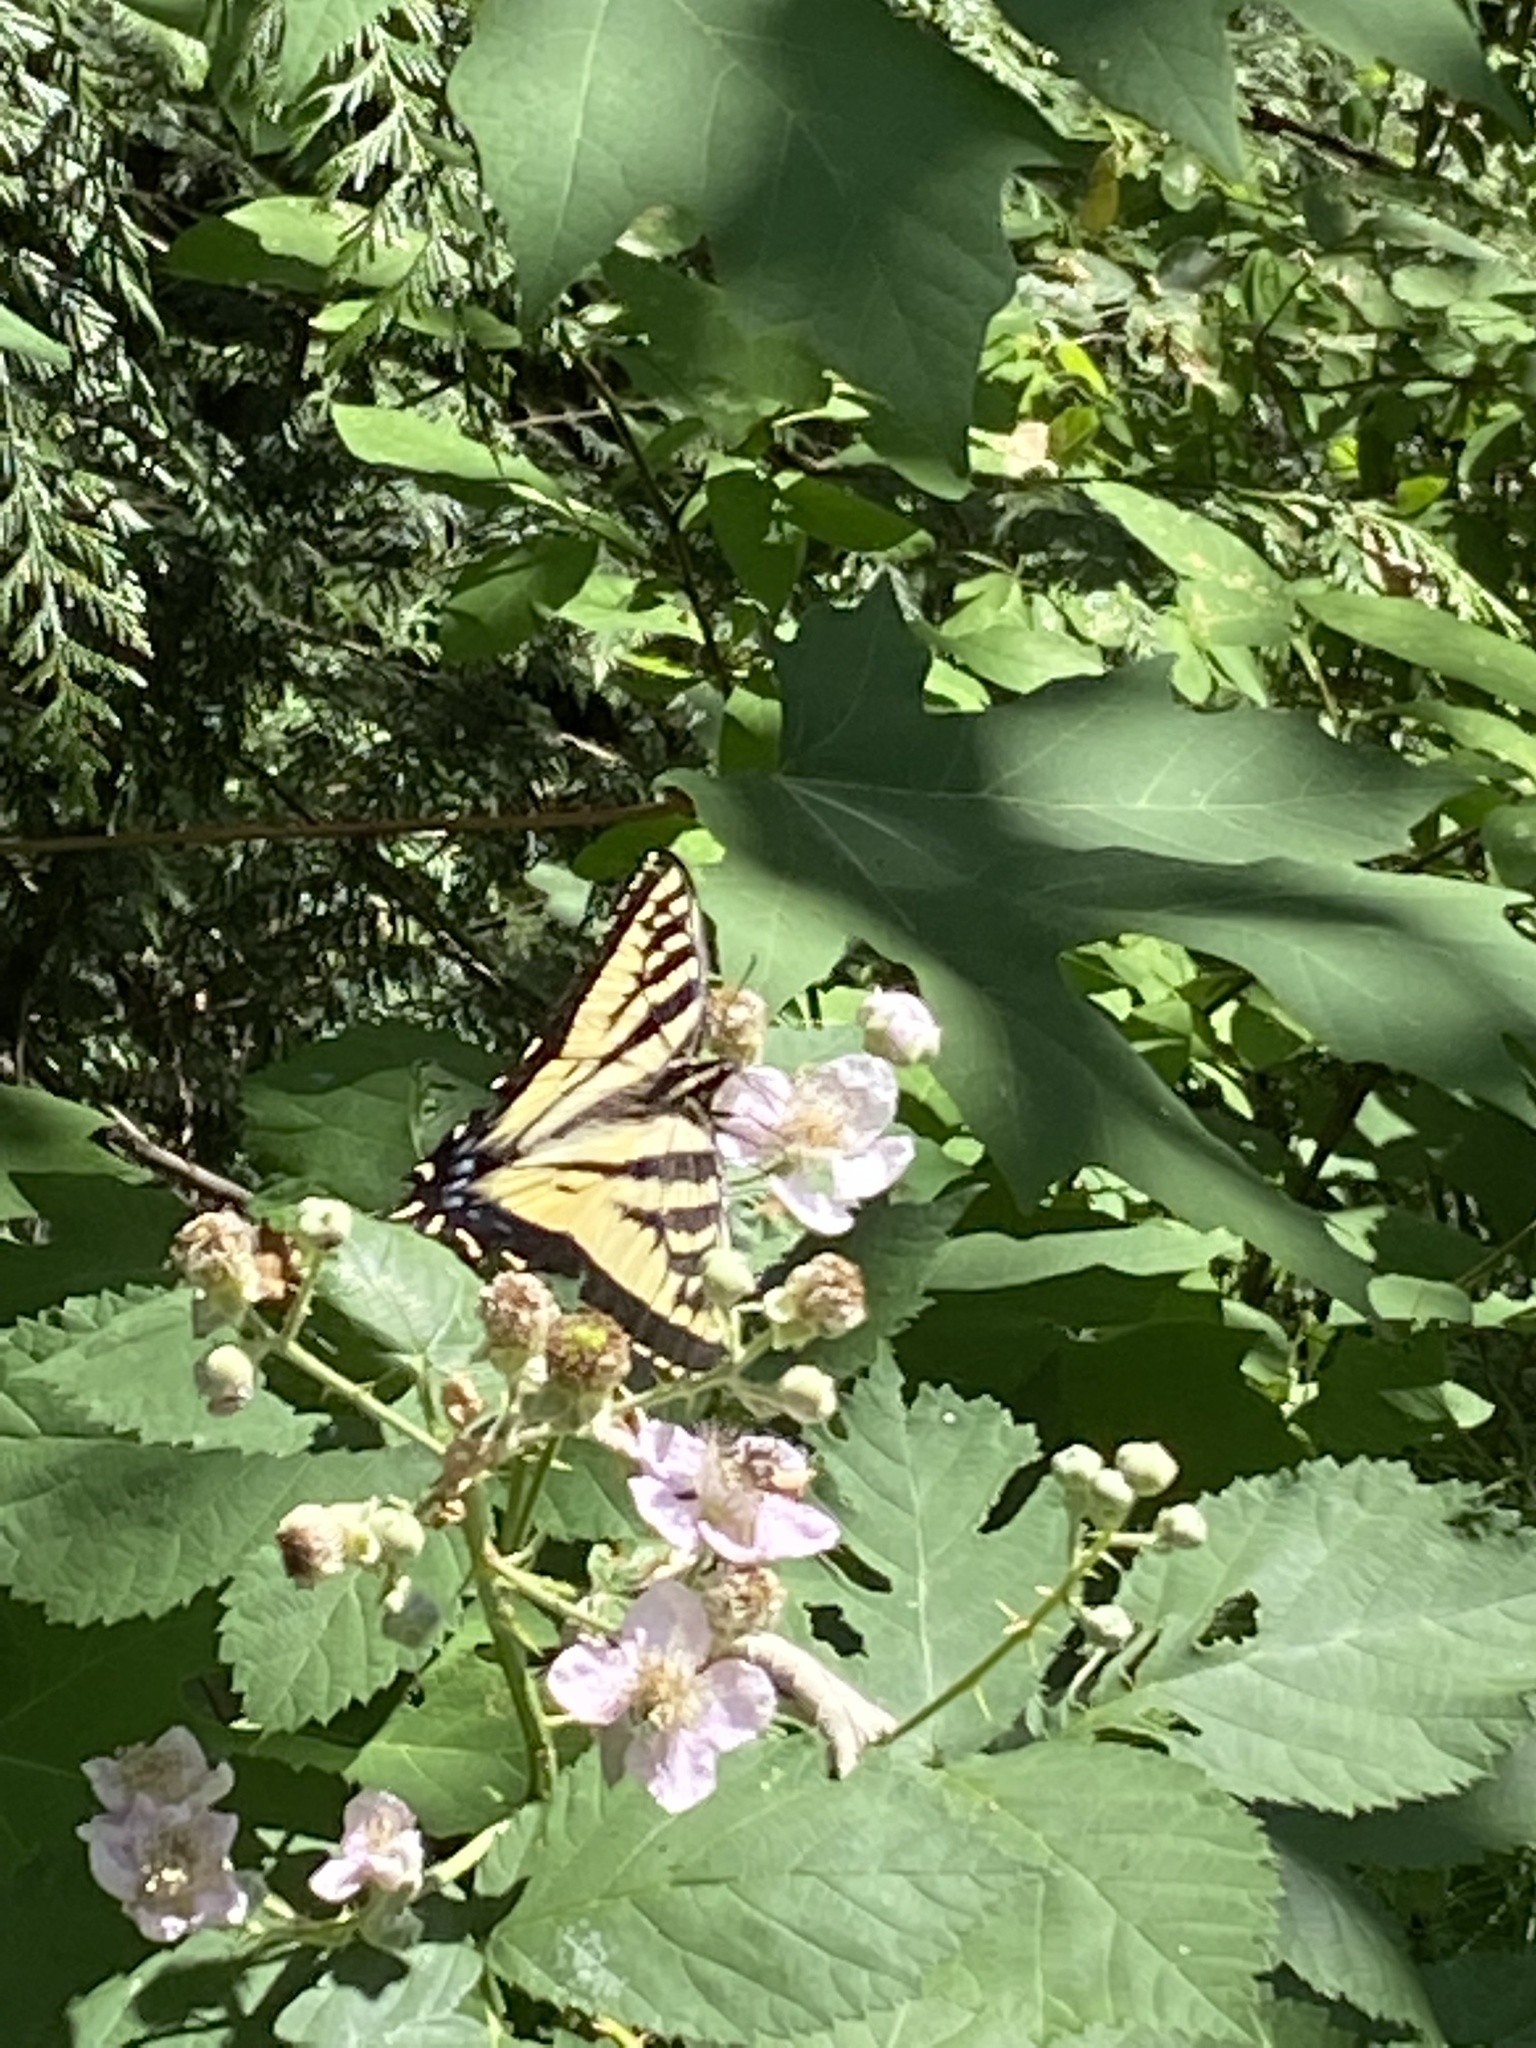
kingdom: Animalia
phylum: Arthropoda
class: Insecta
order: Lepidoptera
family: Papilionidae
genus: Papilio
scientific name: Papilio rutulus
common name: Western tiger swallowtail
